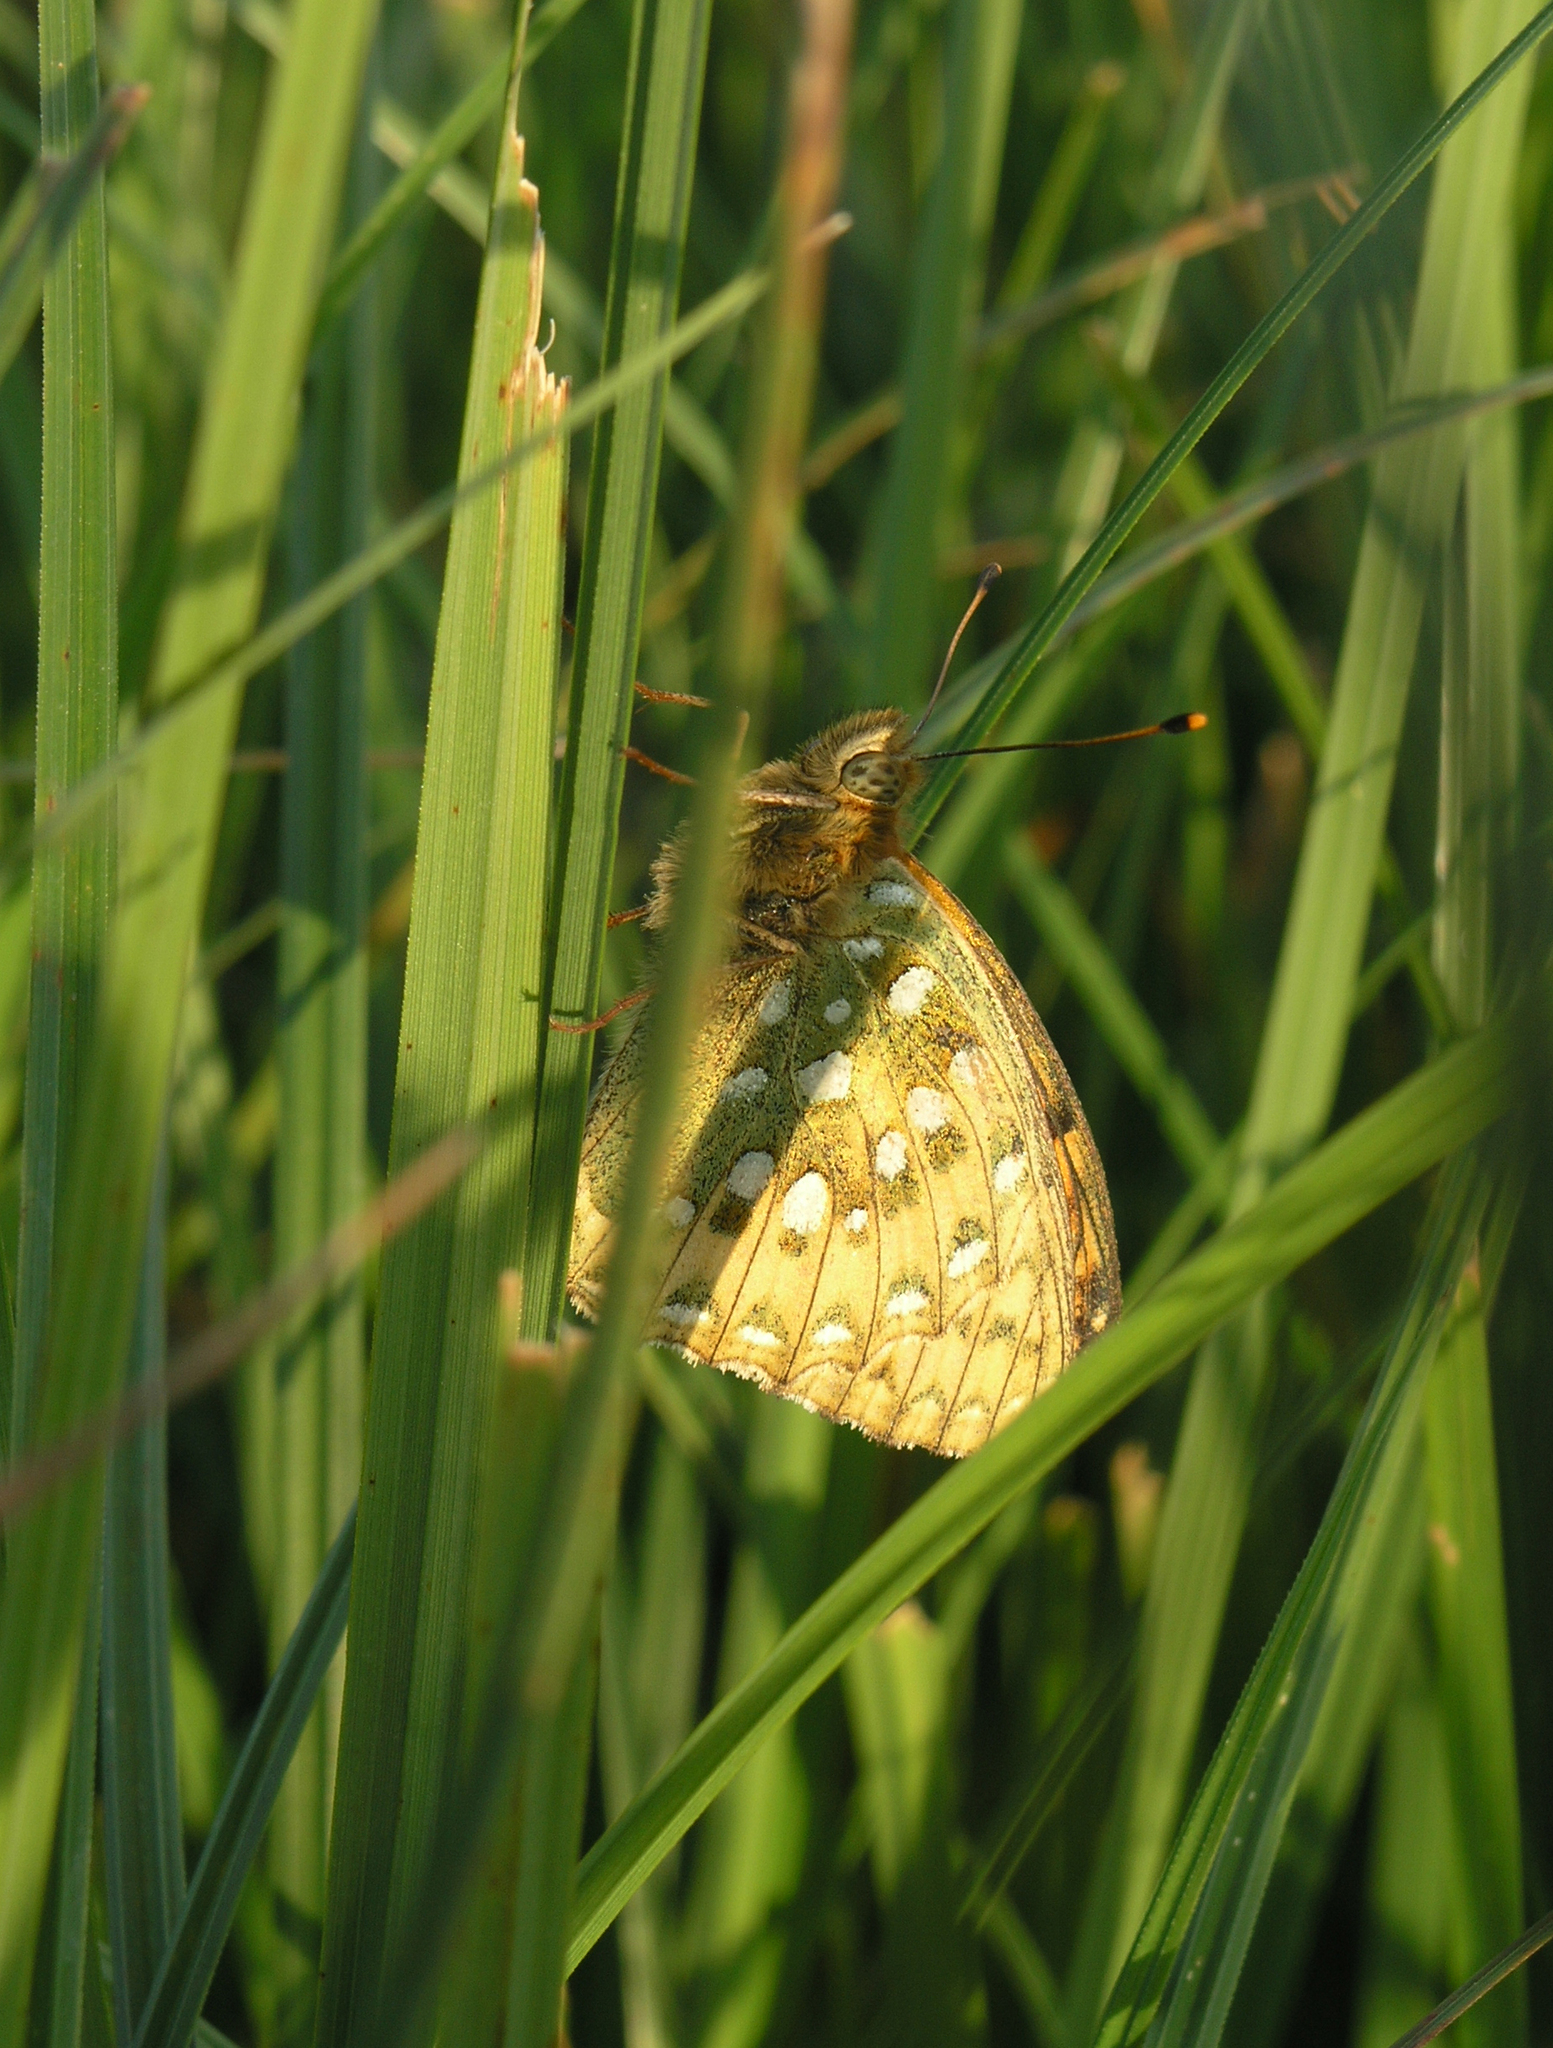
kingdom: Animalia
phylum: Arthropoda
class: Insecta
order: Lepidoptera
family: Nymphalidae
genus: Speyeria
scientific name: Speyeria aglaja
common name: Dark green fritillary
